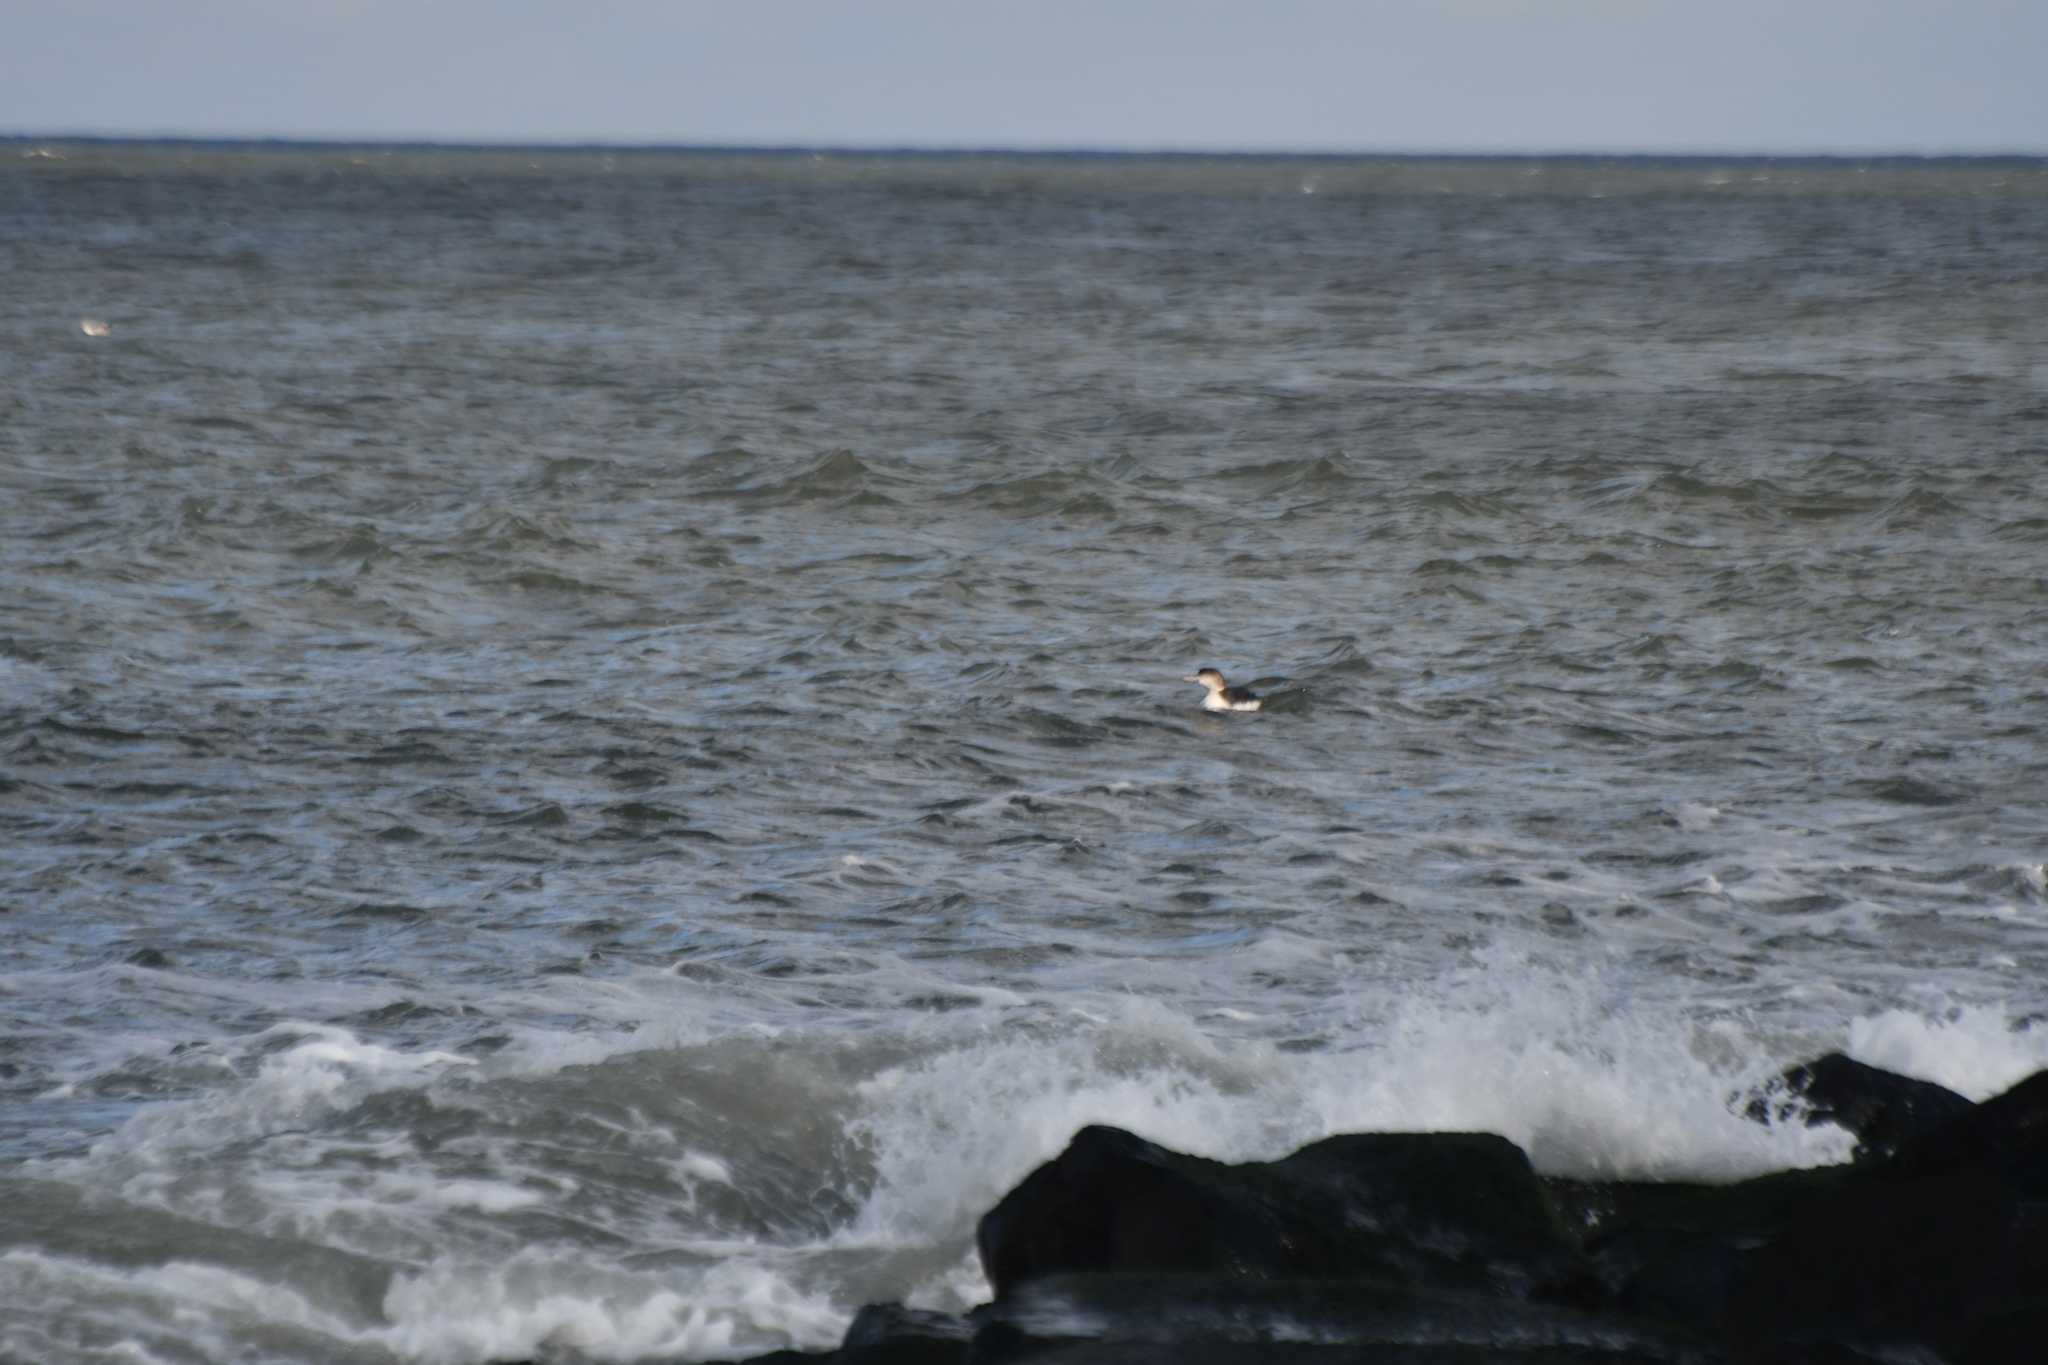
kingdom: Animalia
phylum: Chordata
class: Aves
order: Gaviiformes
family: Gaviidae
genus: Gavia
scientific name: Gavia immer
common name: Common loon
